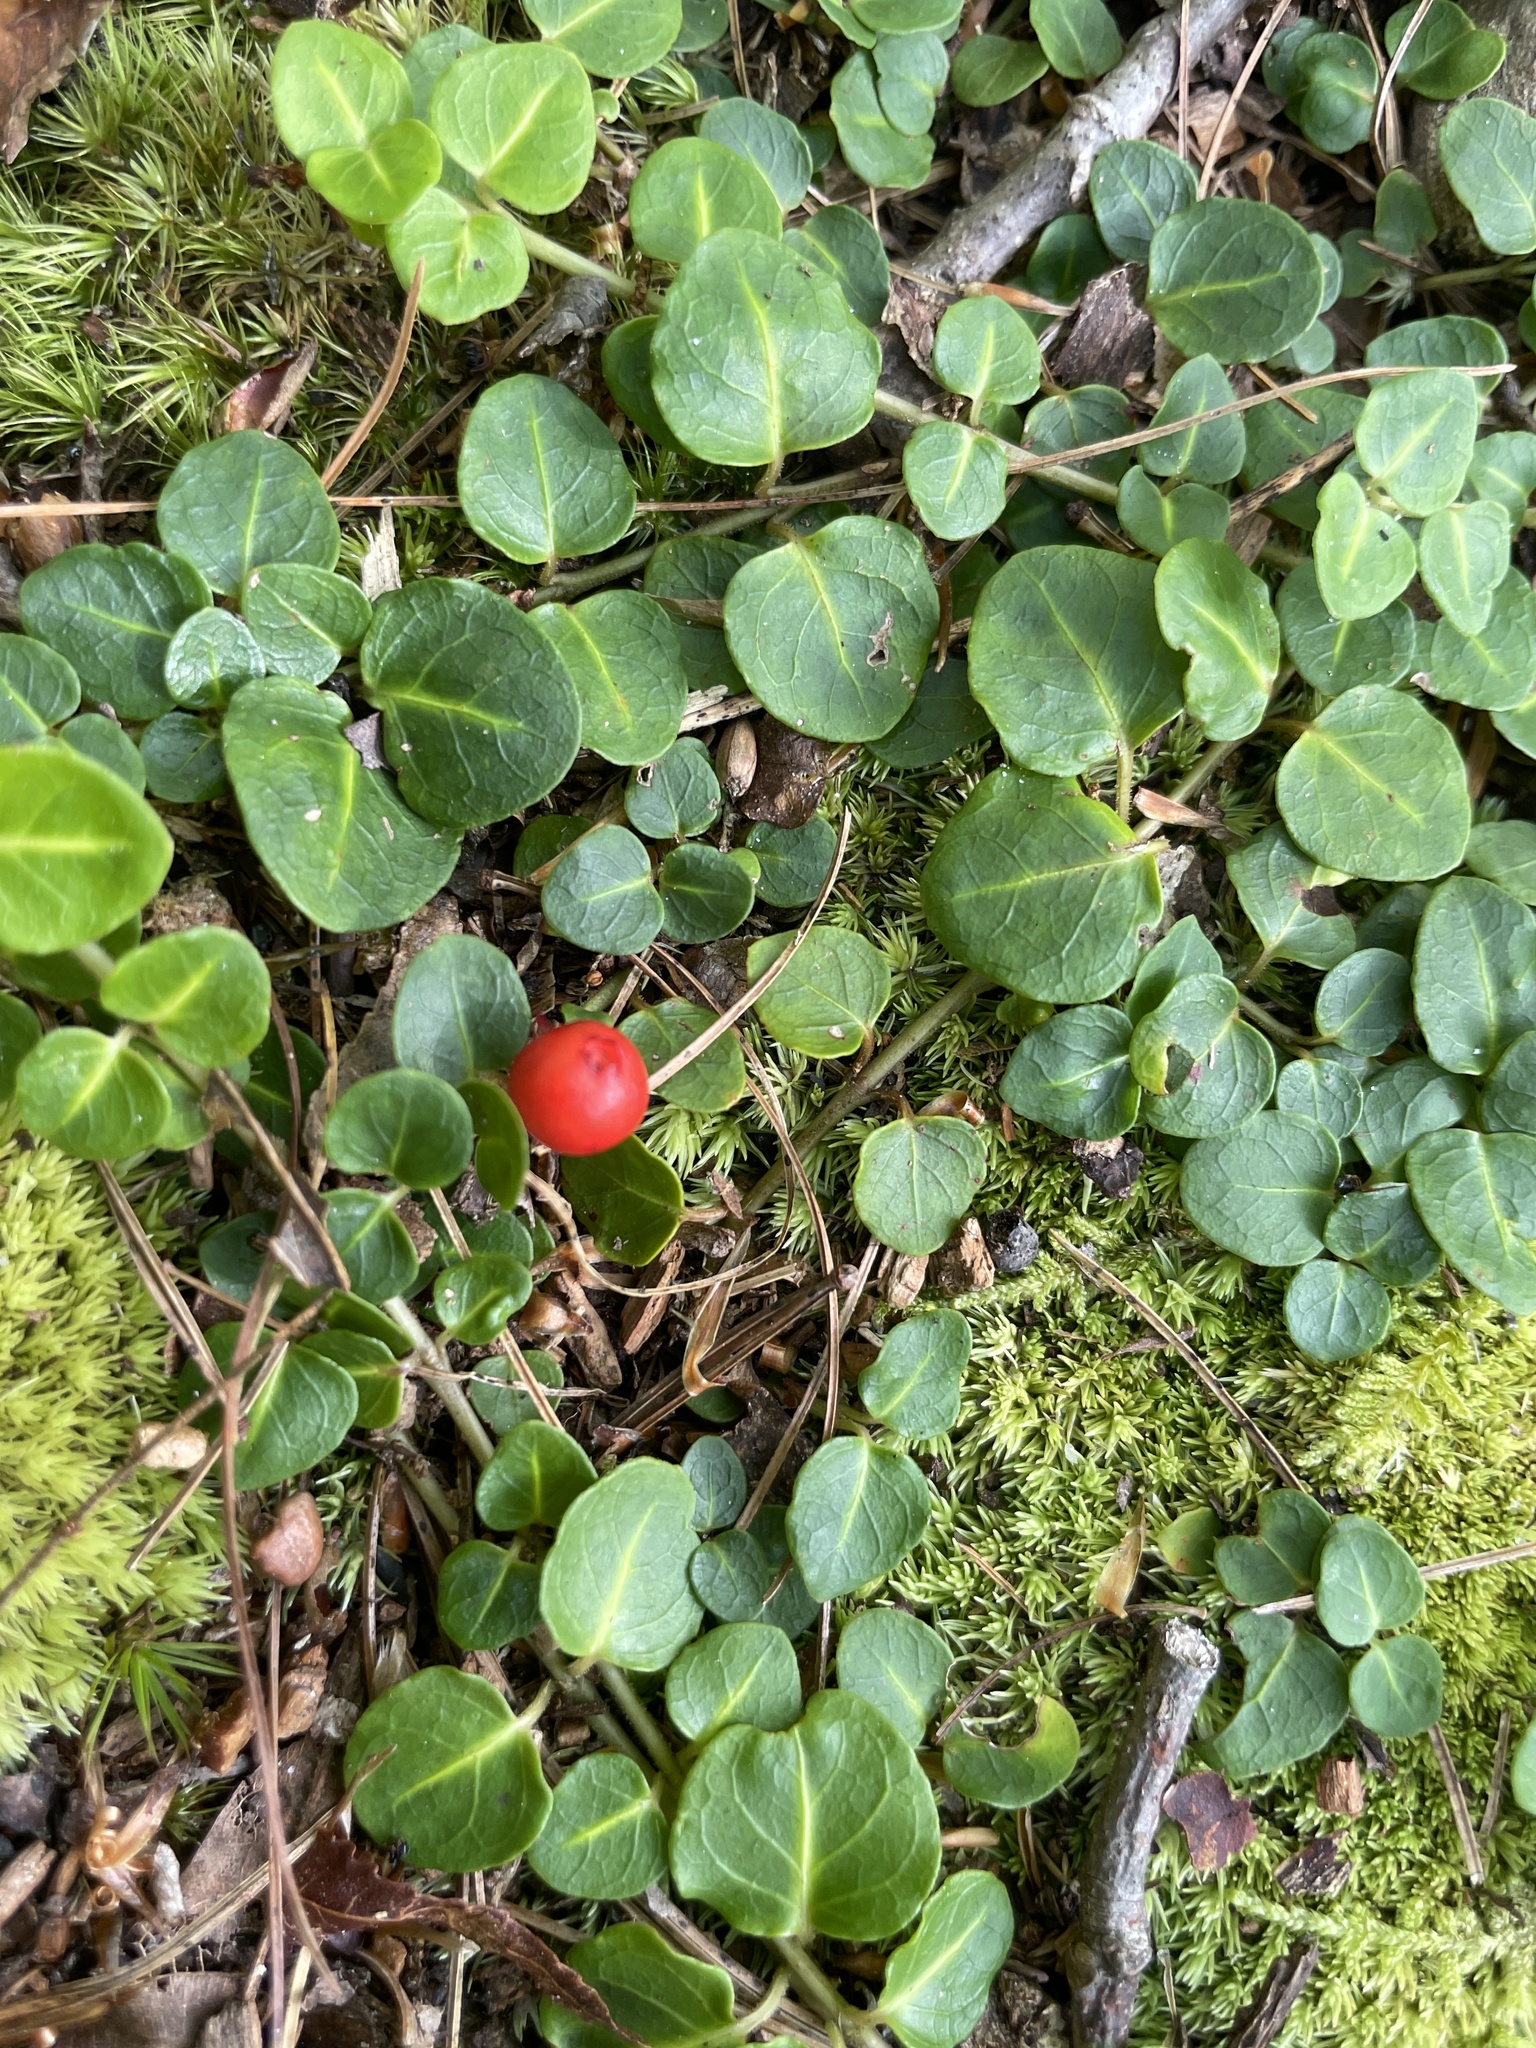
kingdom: Plantae
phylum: Tracheophyta
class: Magnoliopsida
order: Gentianales
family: Rubiaceae
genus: Mitchella
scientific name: Mitchella repens
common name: Partridge-berry
